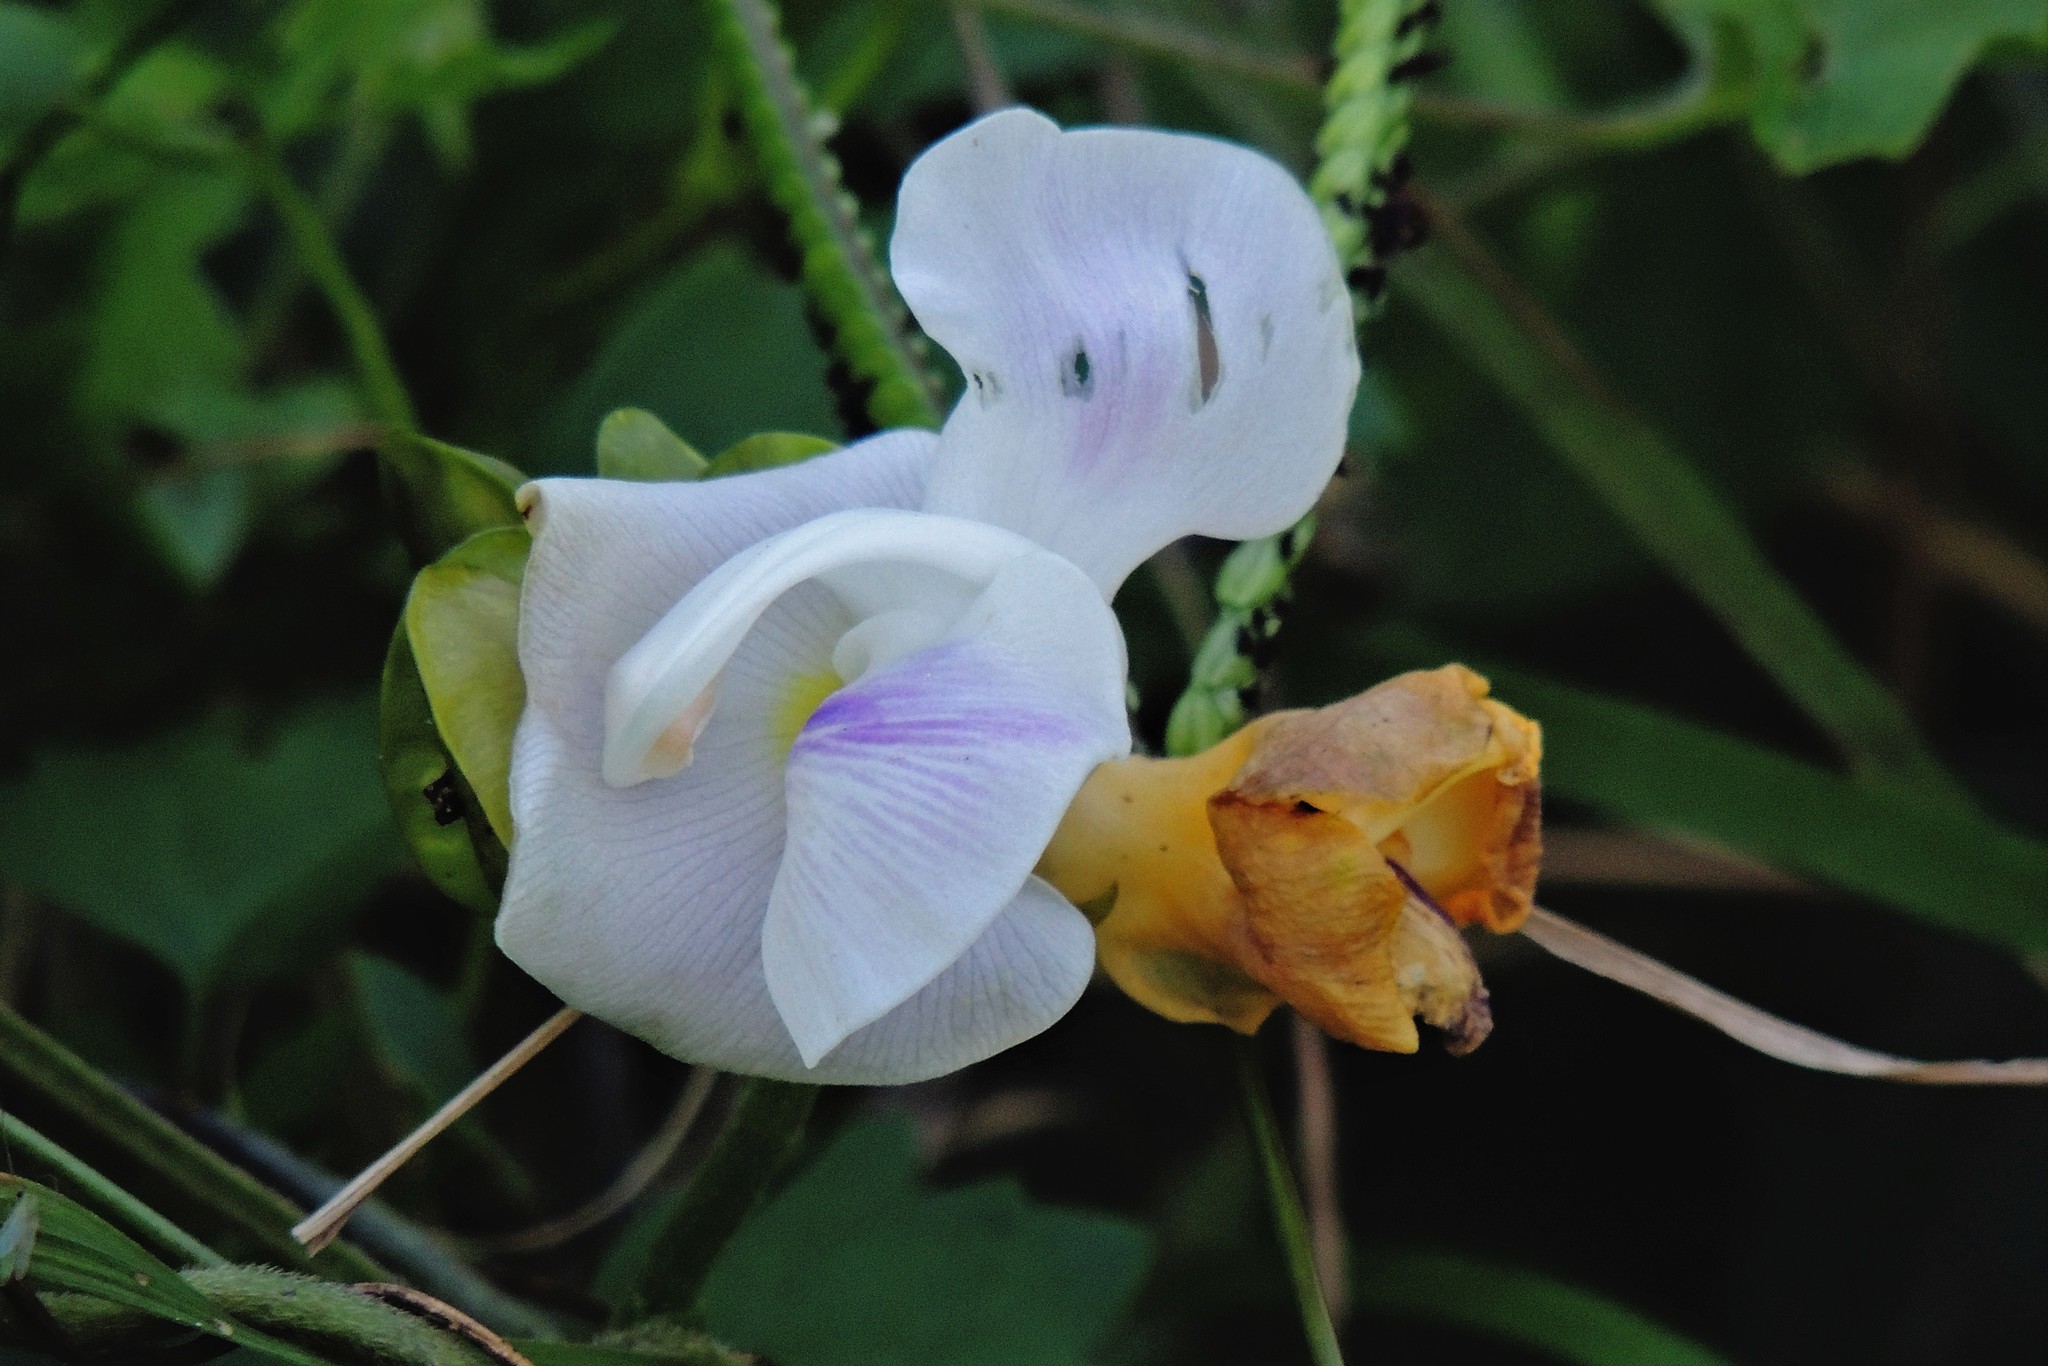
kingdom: Plantae
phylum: Tracheophyta
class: Magnoliopsida
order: Fabales
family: Fabaceae
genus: Leptospron
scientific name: Leptospron adenanthum
